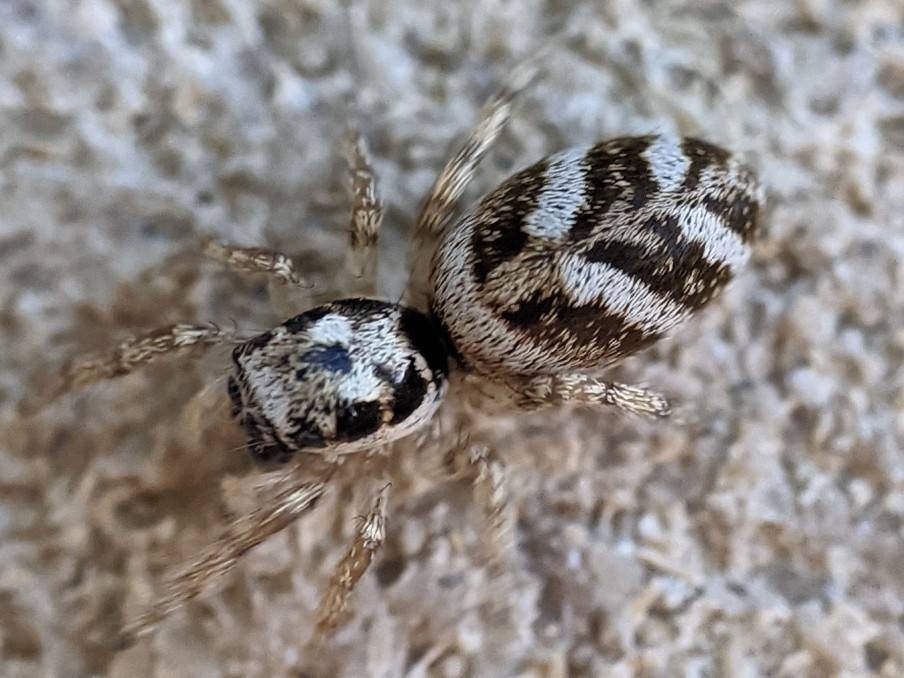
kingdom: Animalia
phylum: Arthropoda
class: Arachnida
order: Araneae
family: Salticidae
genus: Salticus
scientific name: Salticus scenicus
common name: Zebra jumper
